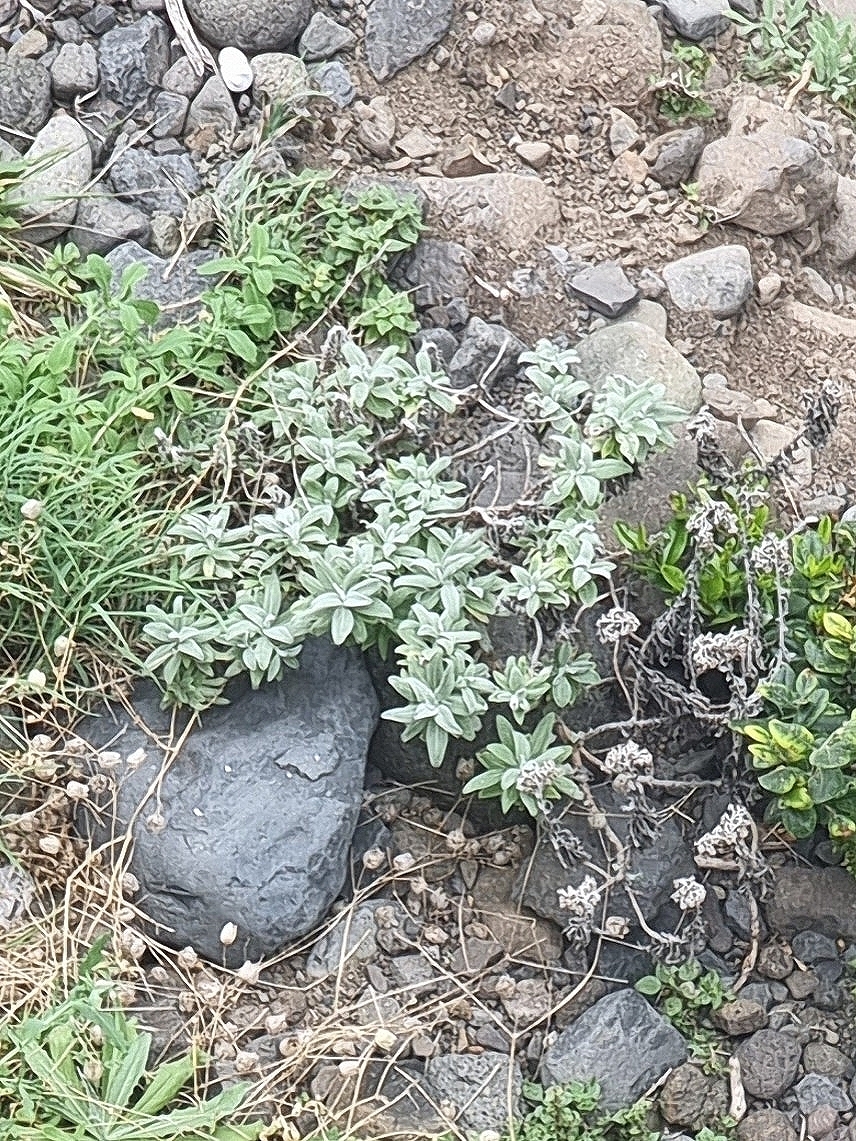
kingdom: Plantae
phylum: Tracheophyta
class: Magnoliopsida
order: Asterales
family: Asteraceae
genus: Helichrysum
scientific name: Helichrysum melaleucum
